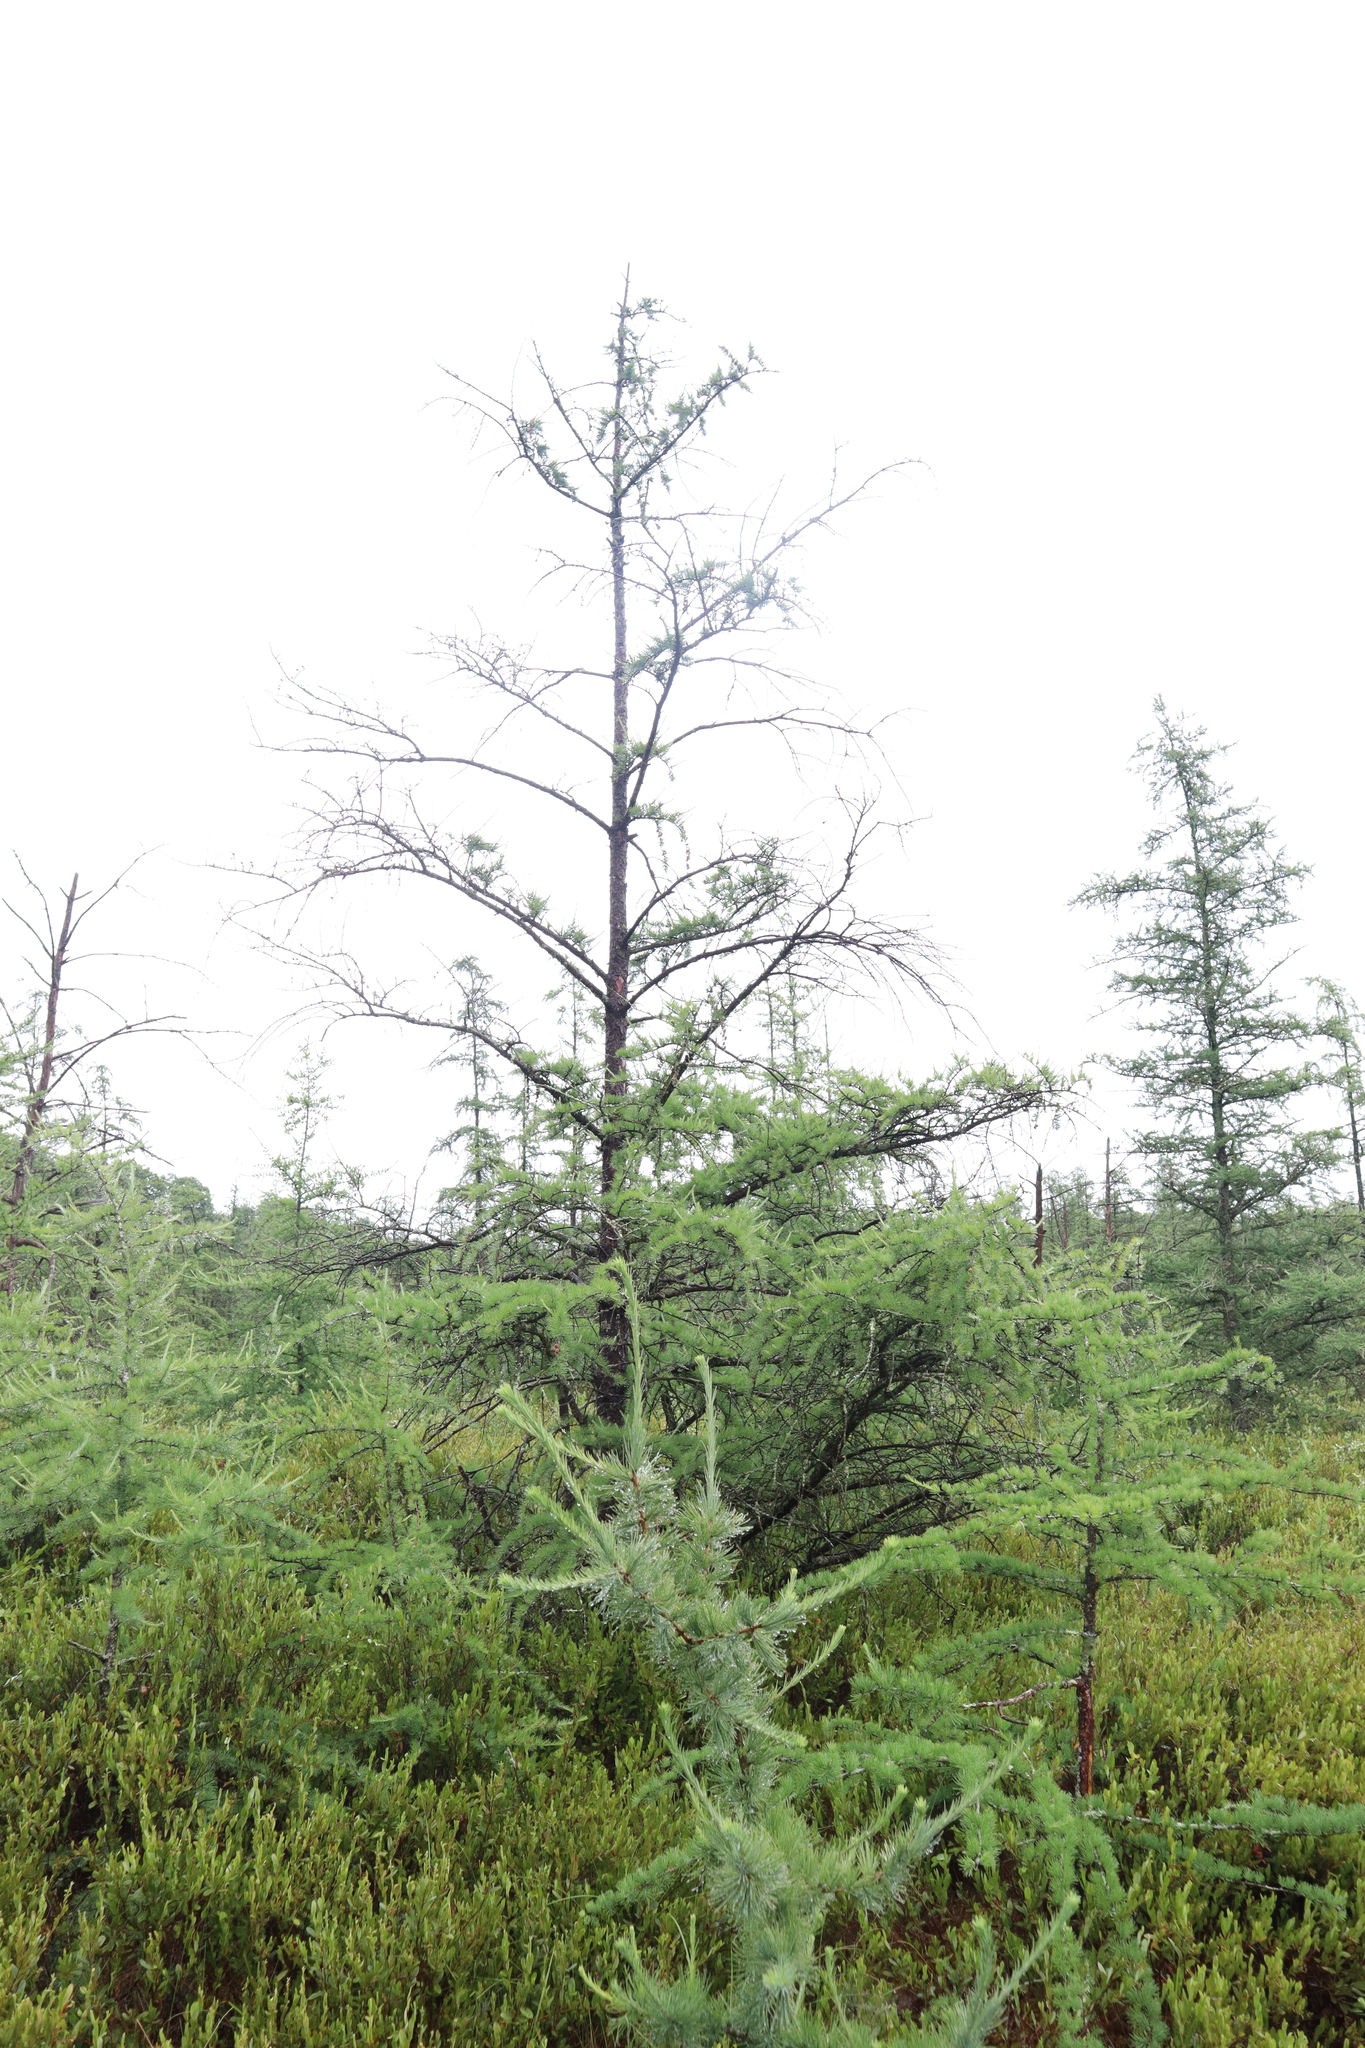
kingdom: Plantae
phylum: Tracheophyta
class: Pinopsida
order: Pinales
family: Pinaceae
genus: Larix
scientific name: Larix laricina
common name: American larch
